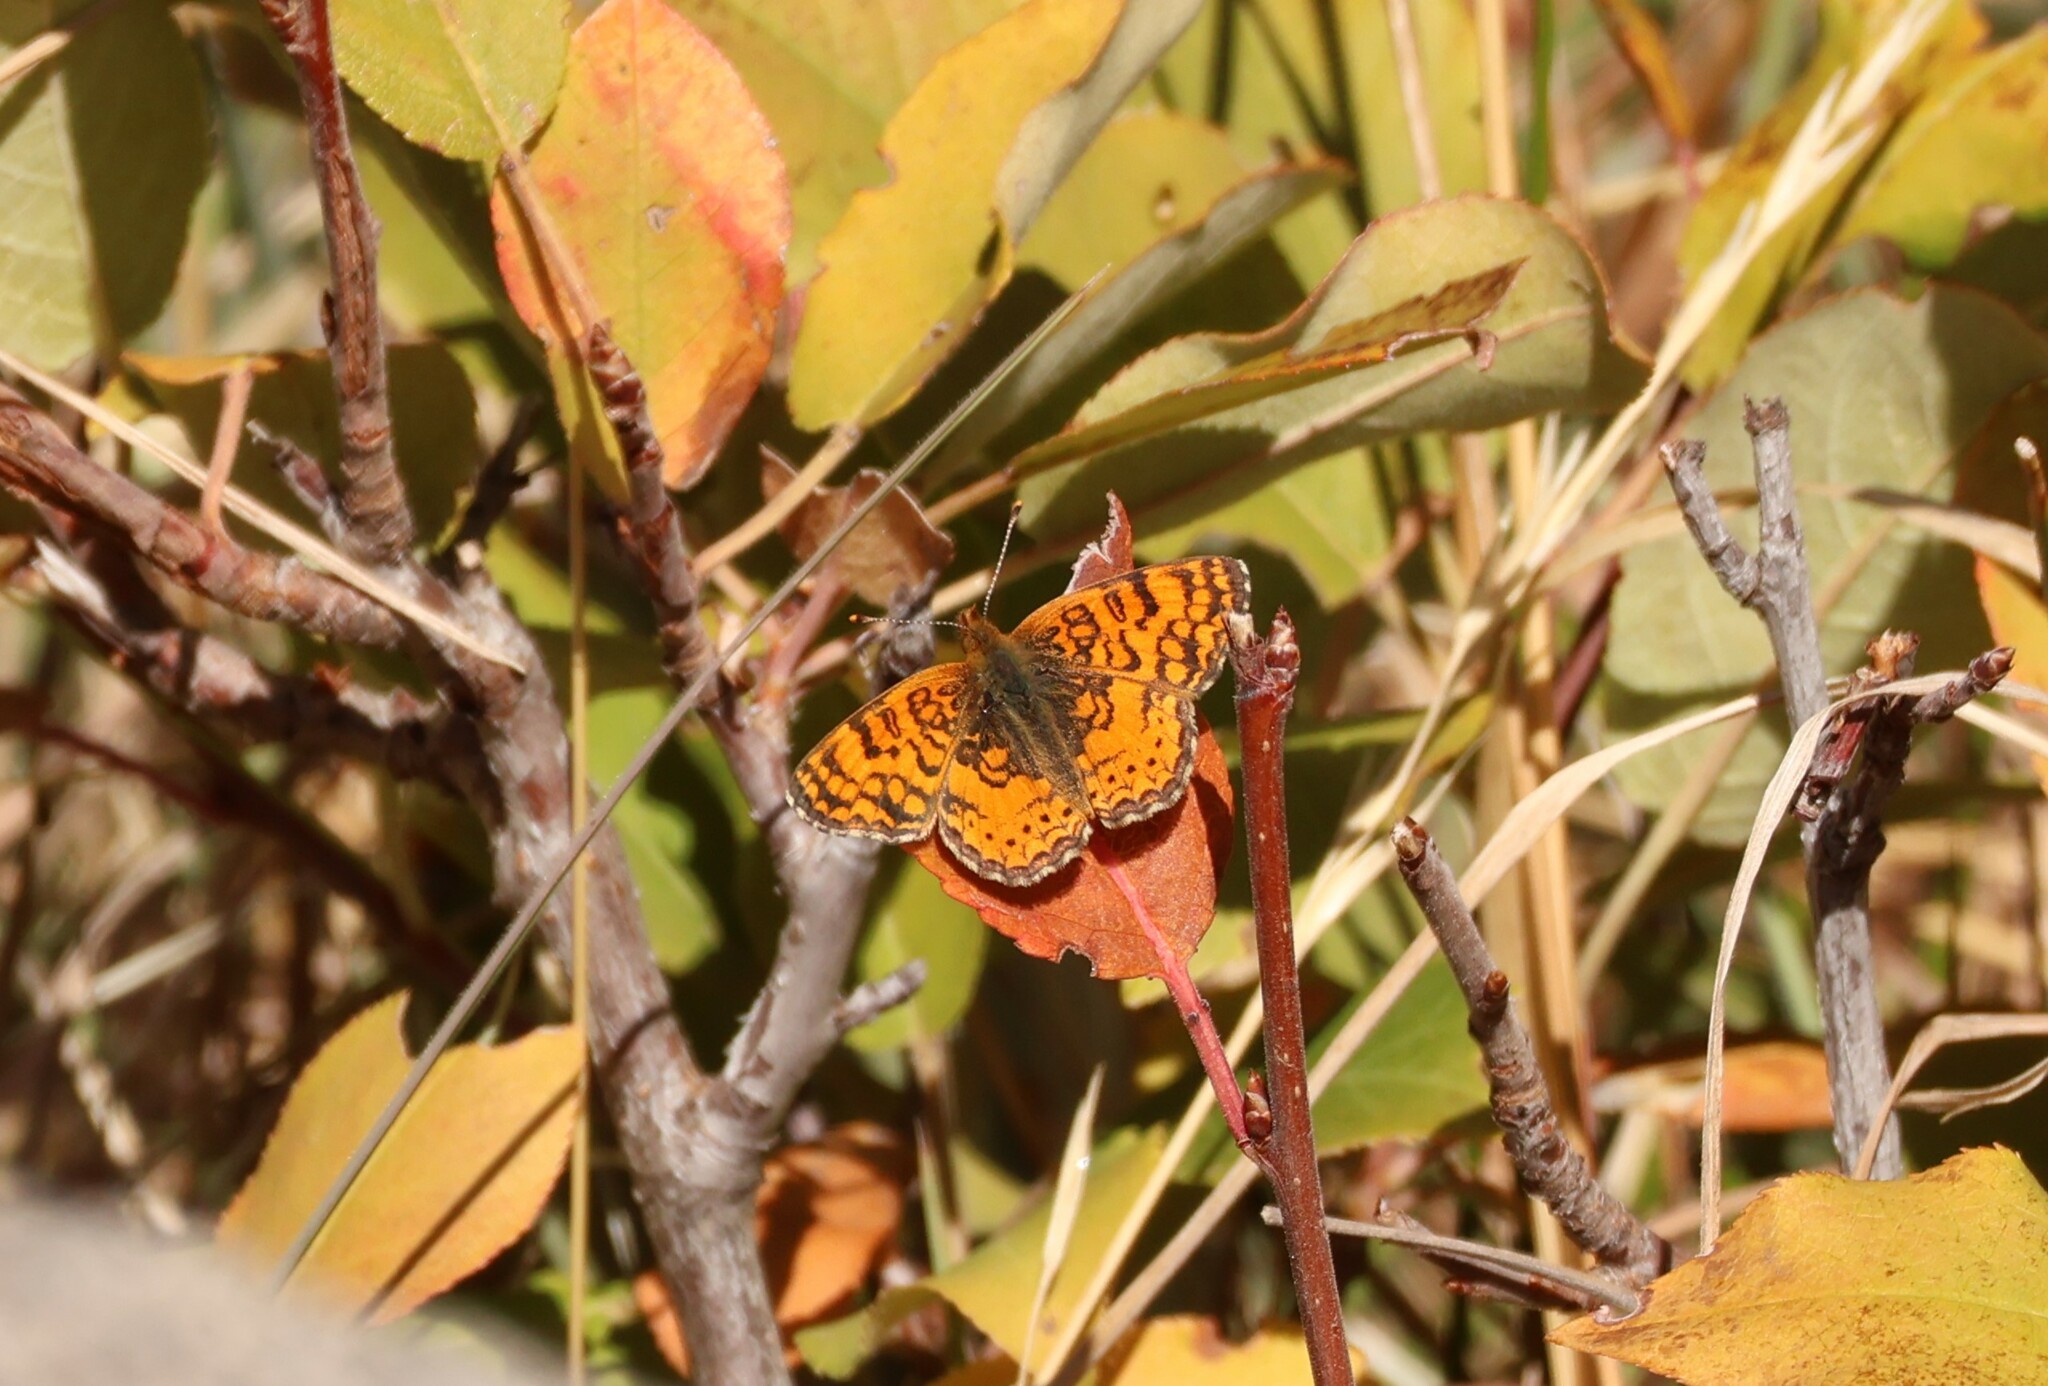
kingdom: Animalia
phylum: Arthropoda
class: Insecta
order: Lepidoptera
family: Nymphalidae
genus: Eresia
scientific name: Eresia aveyrona
